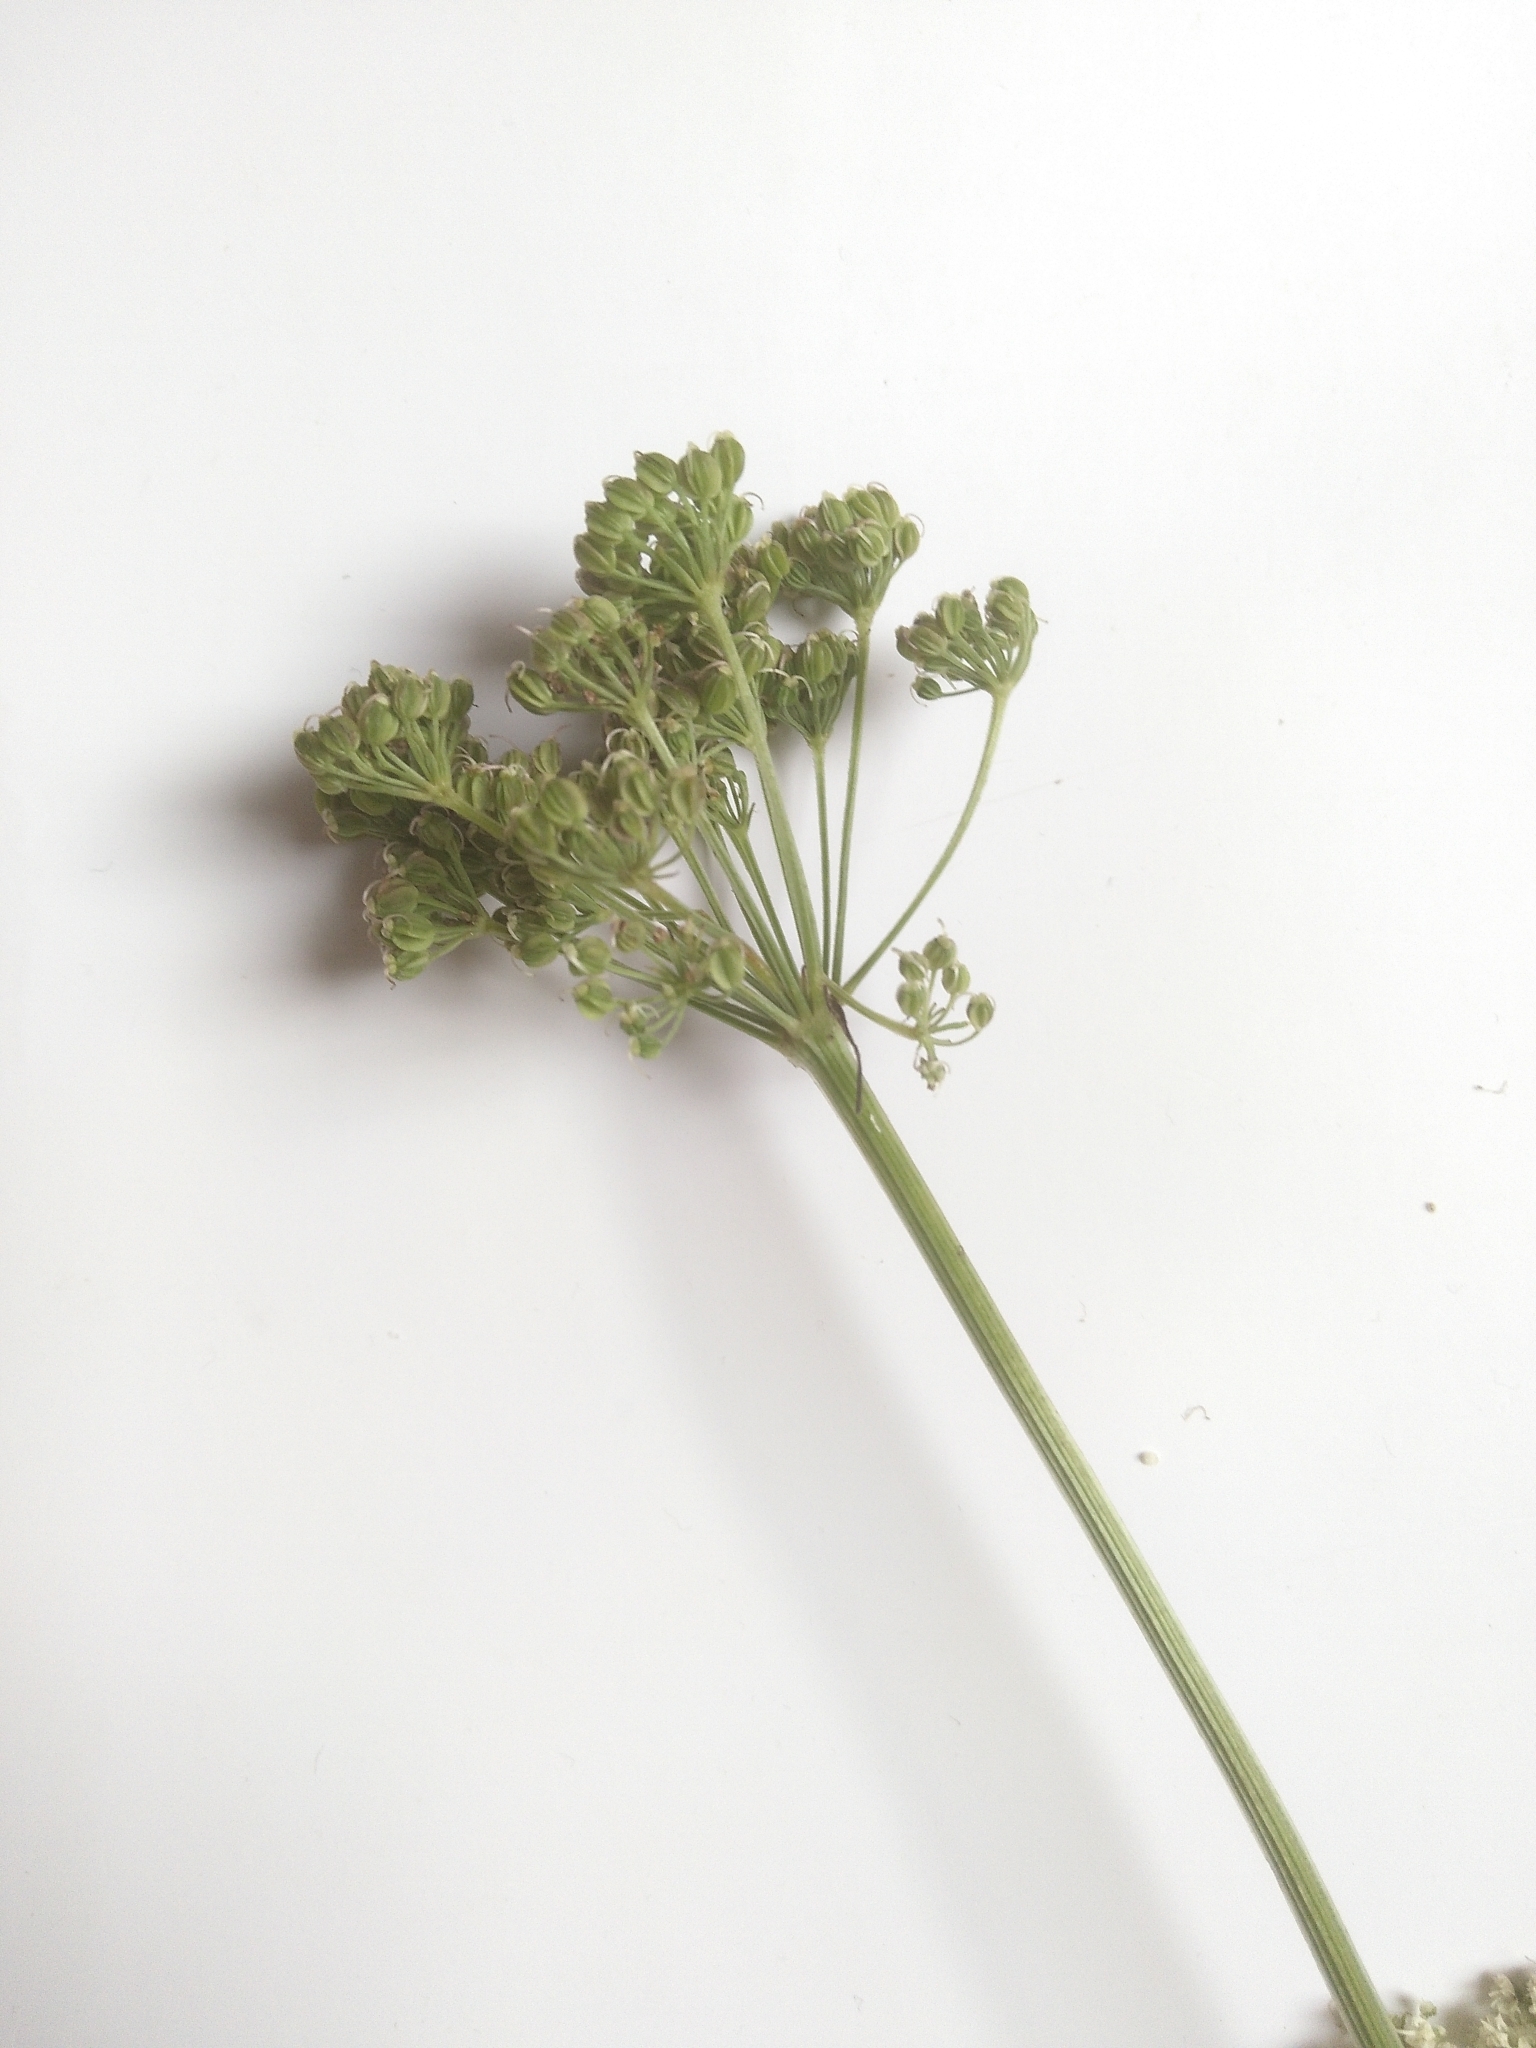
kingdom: Plantae
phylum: Tracheophyta
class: Magnoliopsida
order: Apiales
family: Apiaceae
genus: Selinum
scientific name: Selinum carvifolia
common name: Cambridge milk-parsley
